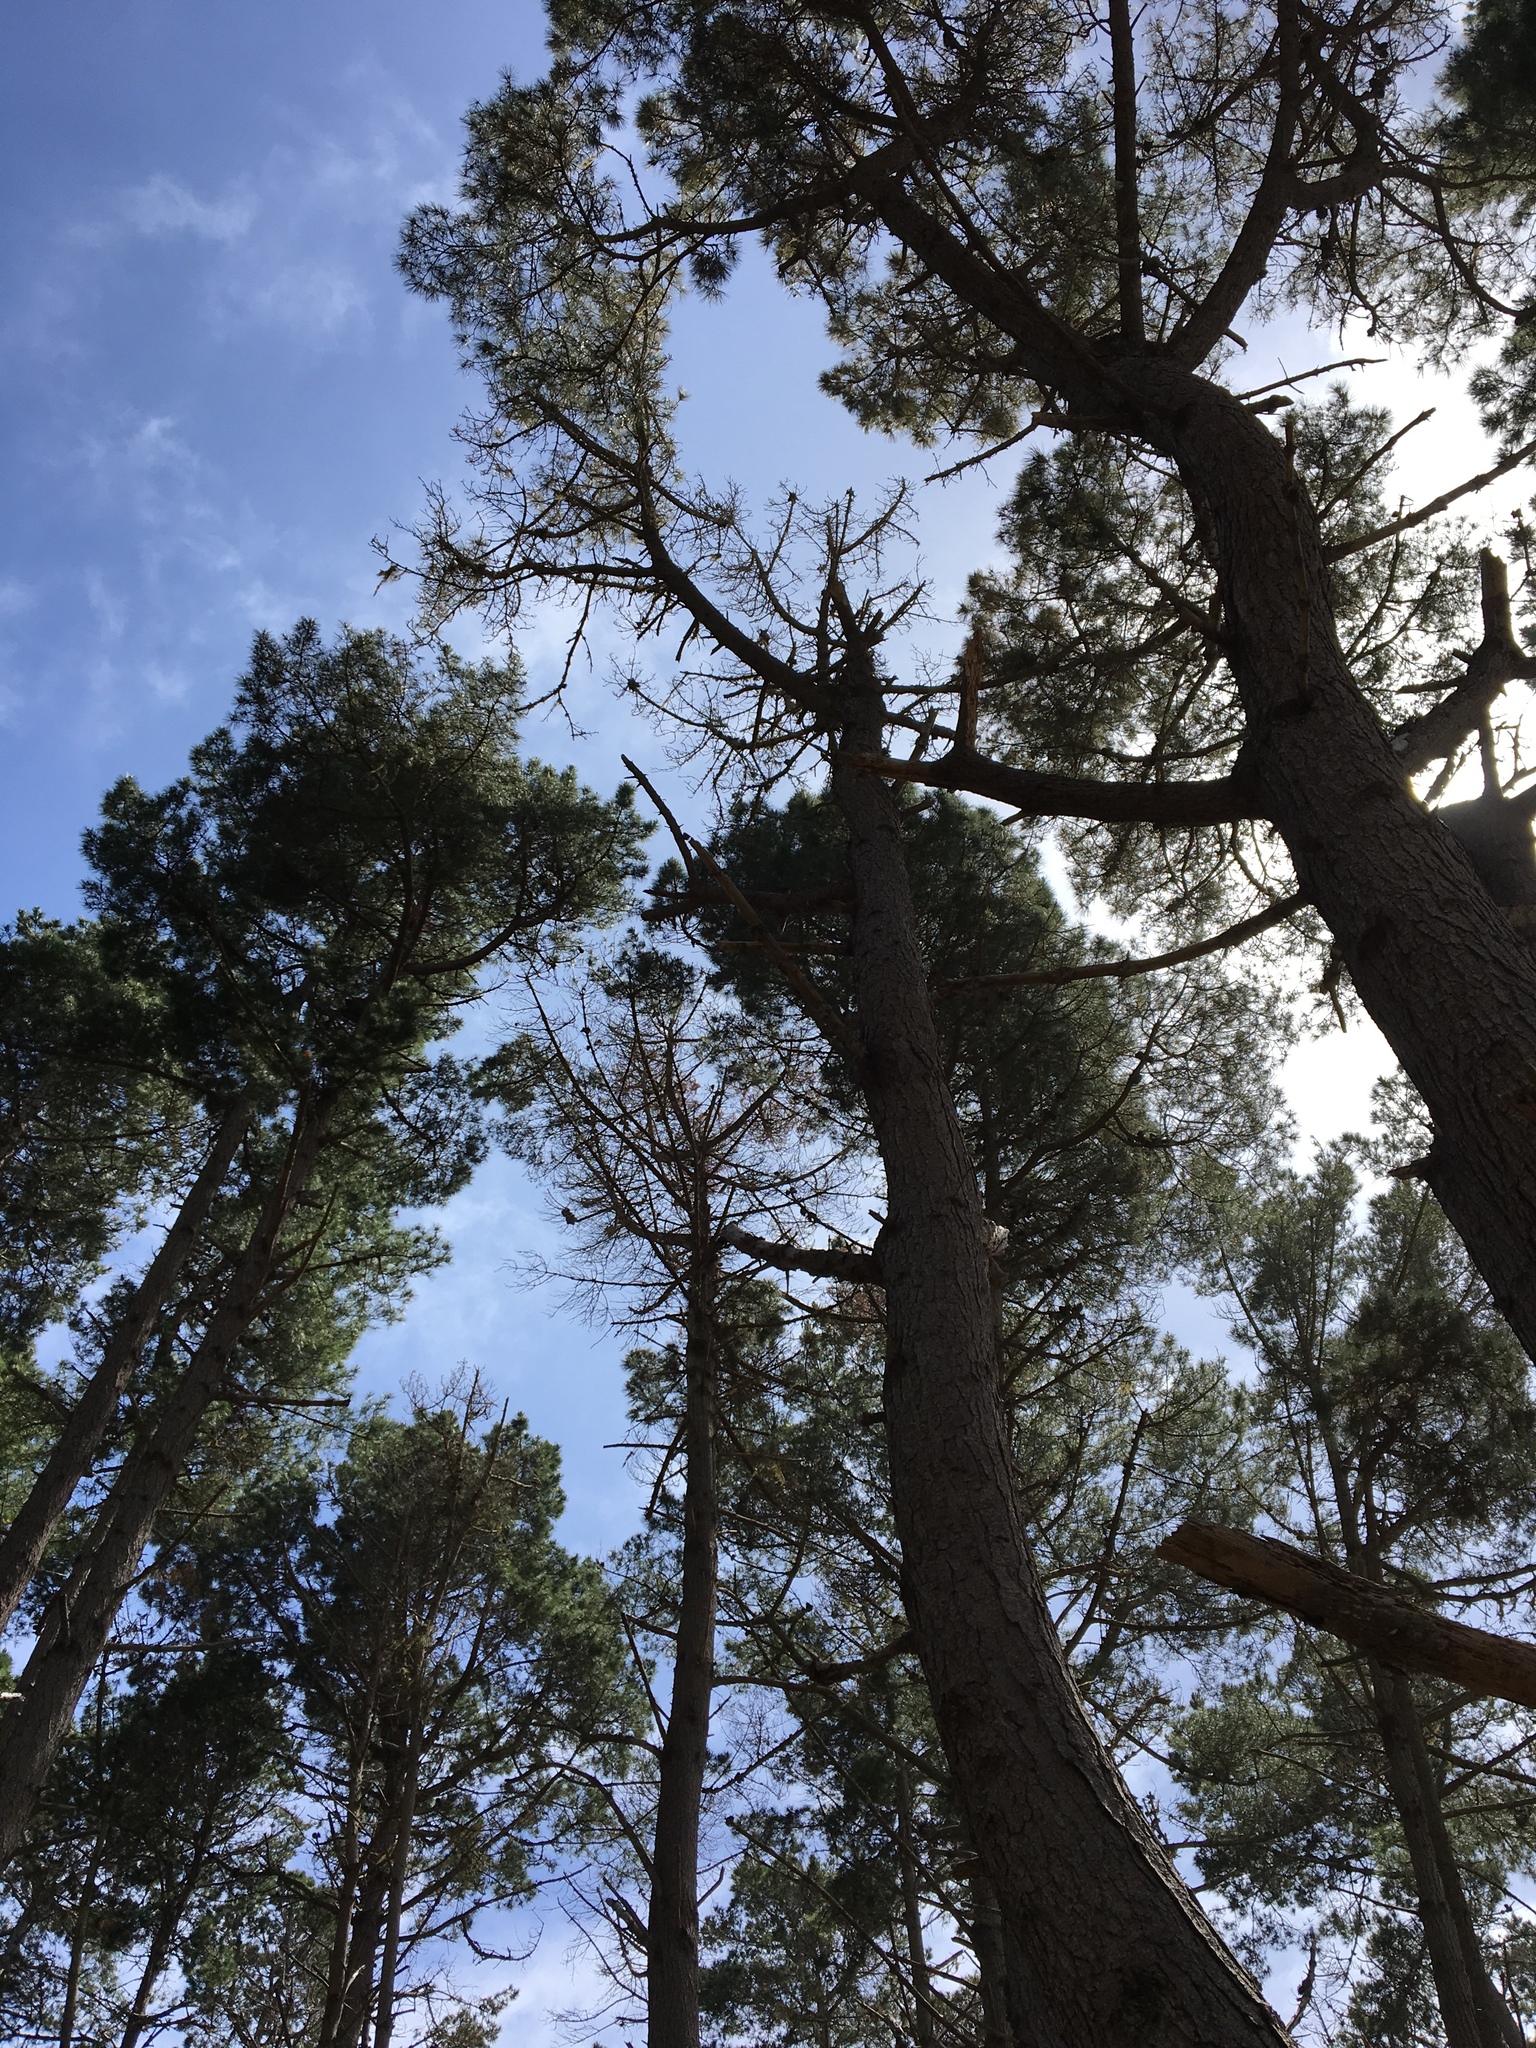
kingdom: Plantae
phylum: Tracheophyta
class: Pinopsida
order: Pinales
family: Pinaceae
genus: Pinus
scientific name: Pinus radiata
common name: Monterey pine
